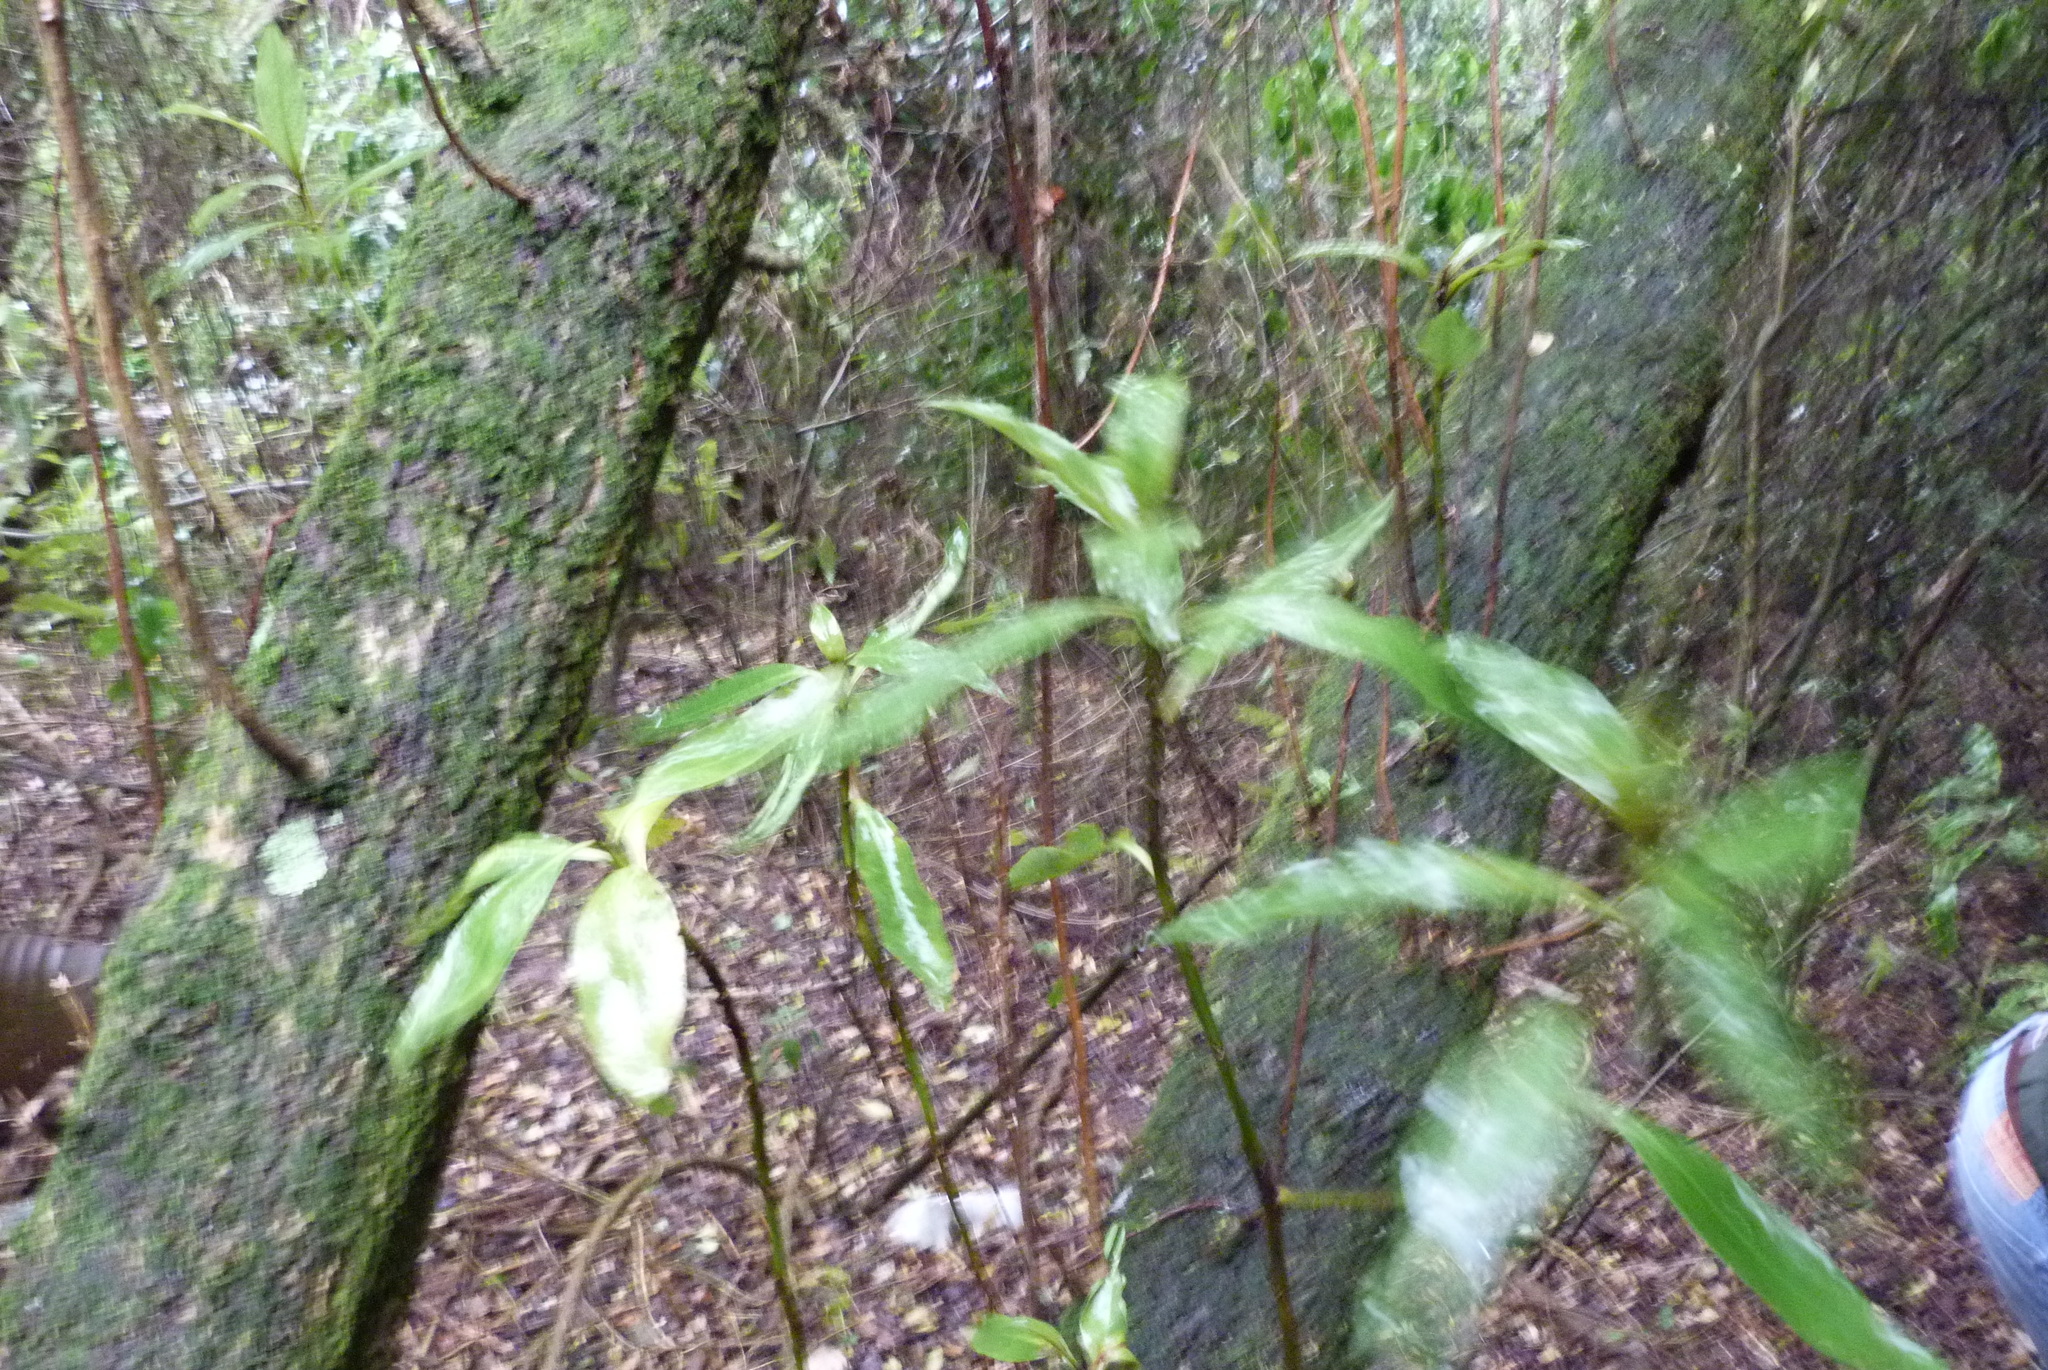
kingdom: Plantae
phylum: Tracheophyta
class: Magnoliopsida
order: Lamiales
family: Scrophulariaceae
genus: Myoporum
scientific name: Myoporum laetum
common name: Ngaio tree
